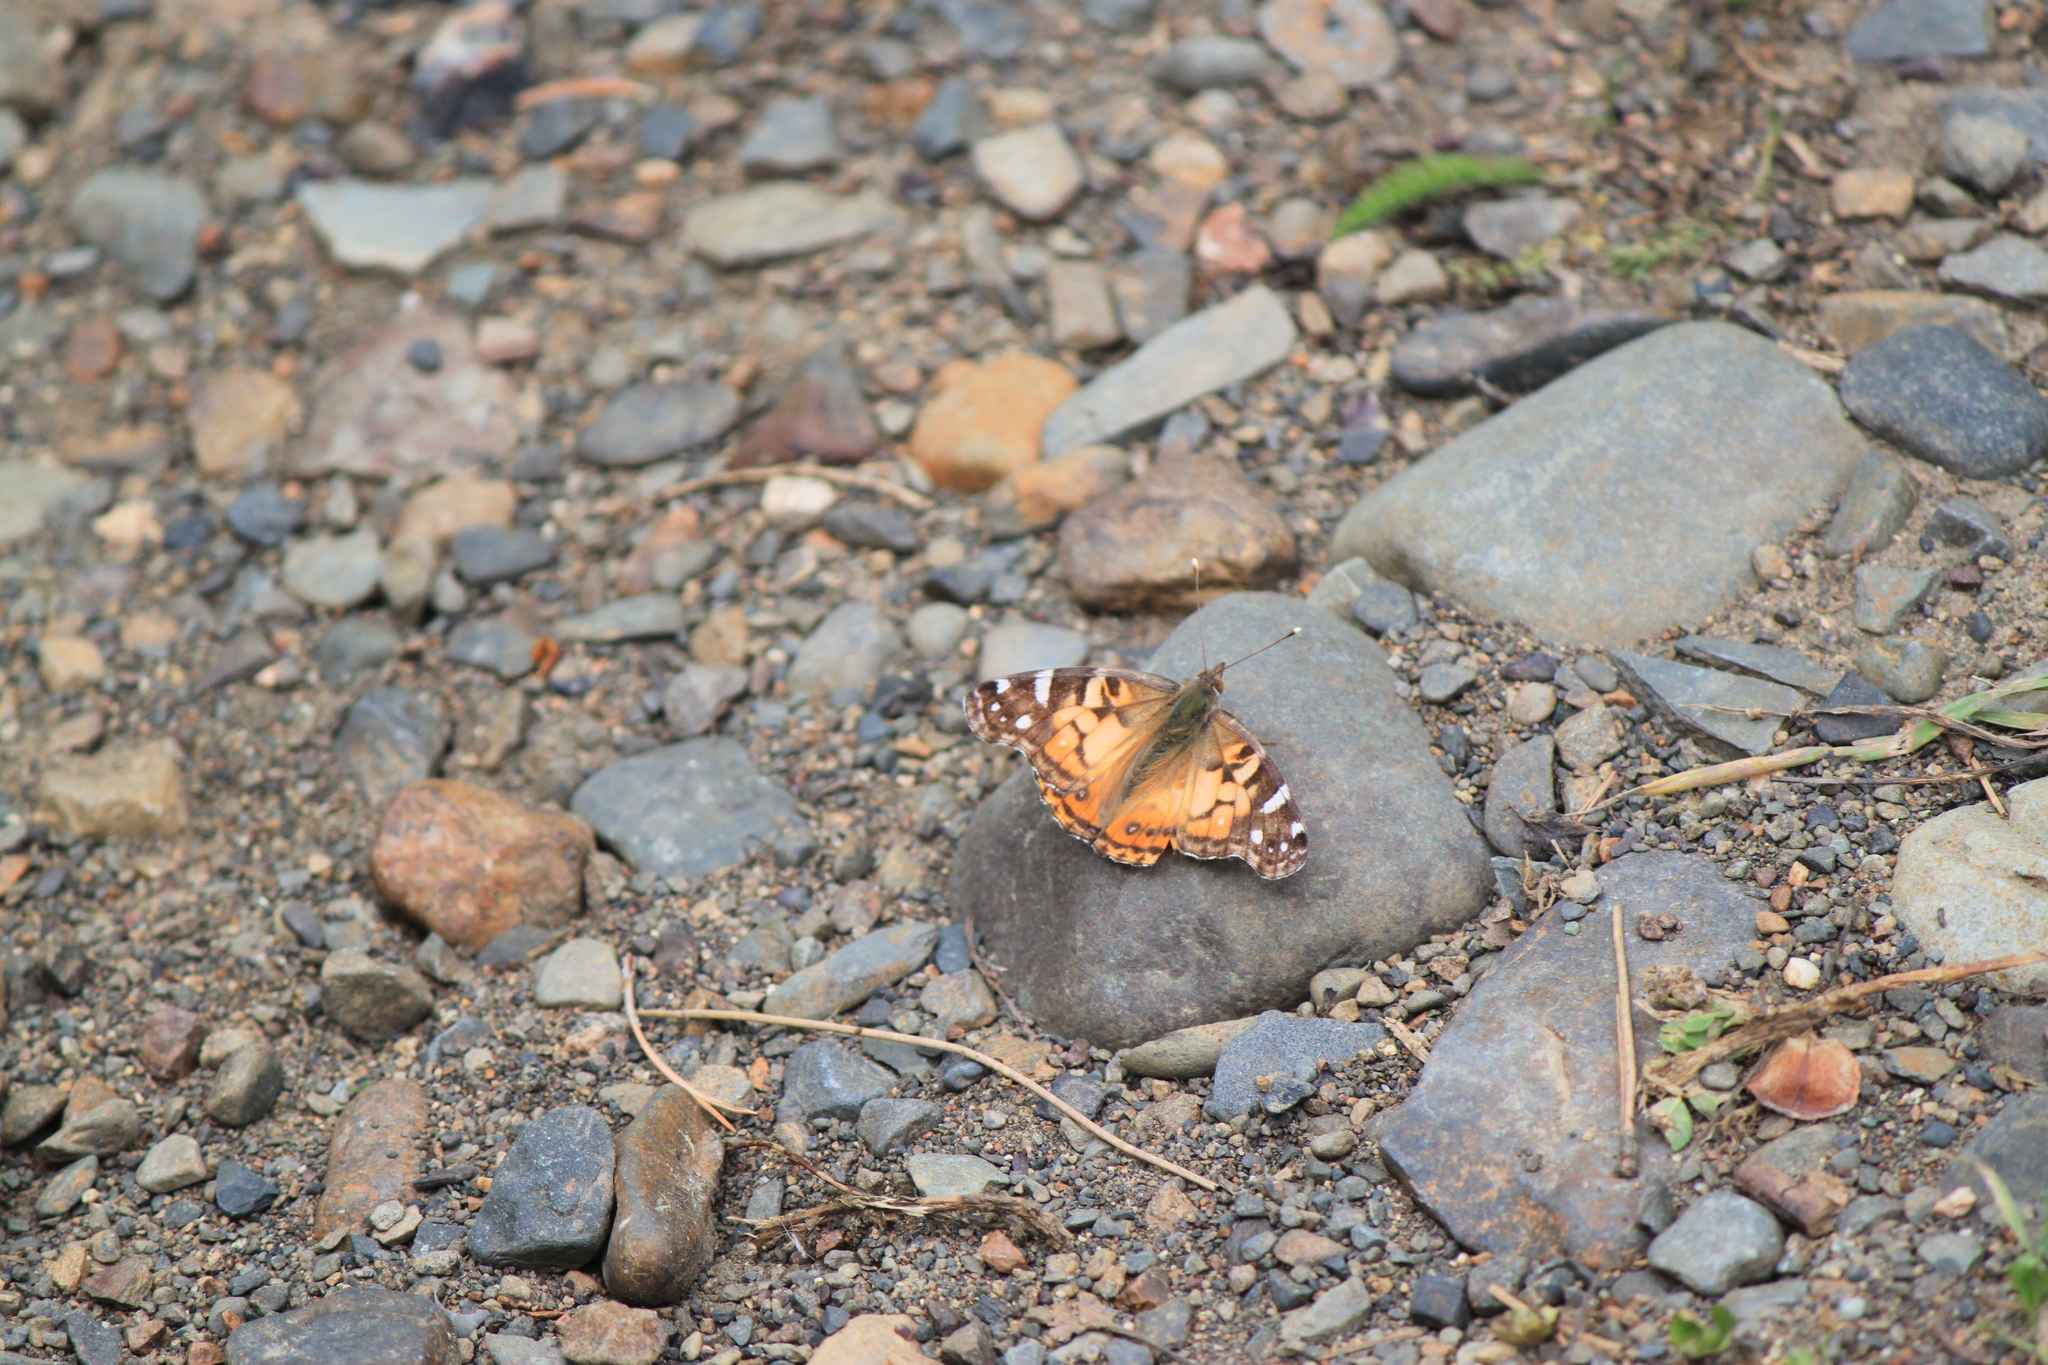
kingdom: Animalia
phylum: Arthropoda
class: Insecta
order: Lepidoptera
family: Nymphalidae
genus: Vanessa
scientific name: Vanessa virginiensis
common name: American lady
